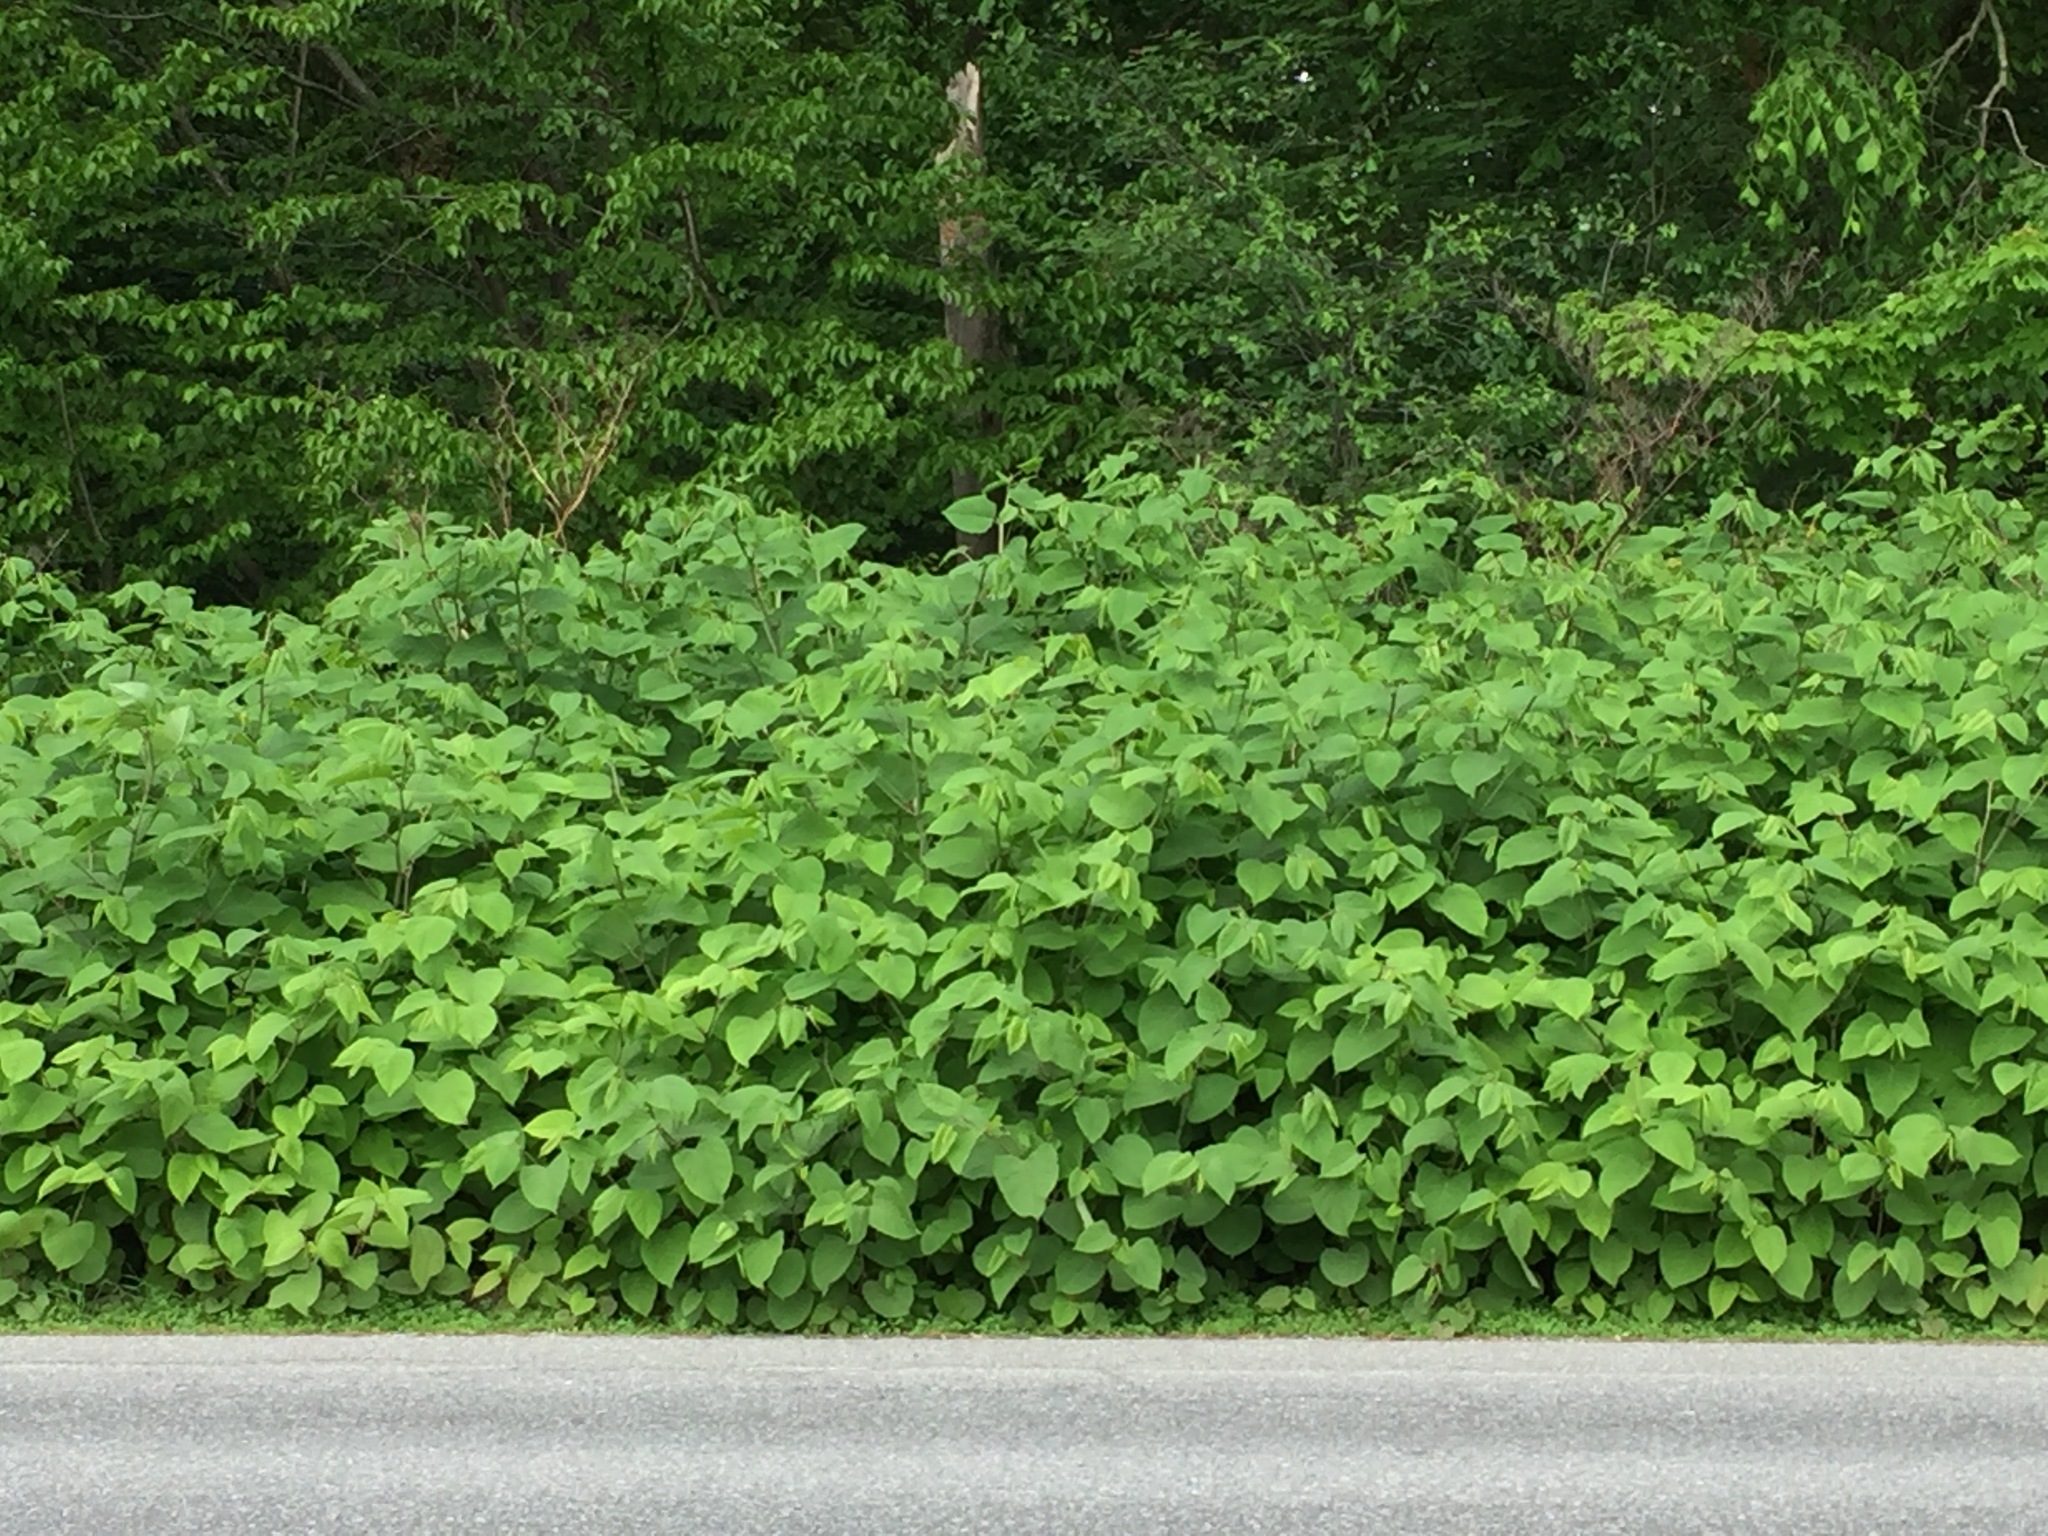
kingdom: Plantae
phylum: Tracheophyta
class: Magnoliopsida
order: Caryophyllales
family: Polygonaceae
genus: Reynoutria
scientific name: Reynoutria japonica
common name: Japanese knotweed
